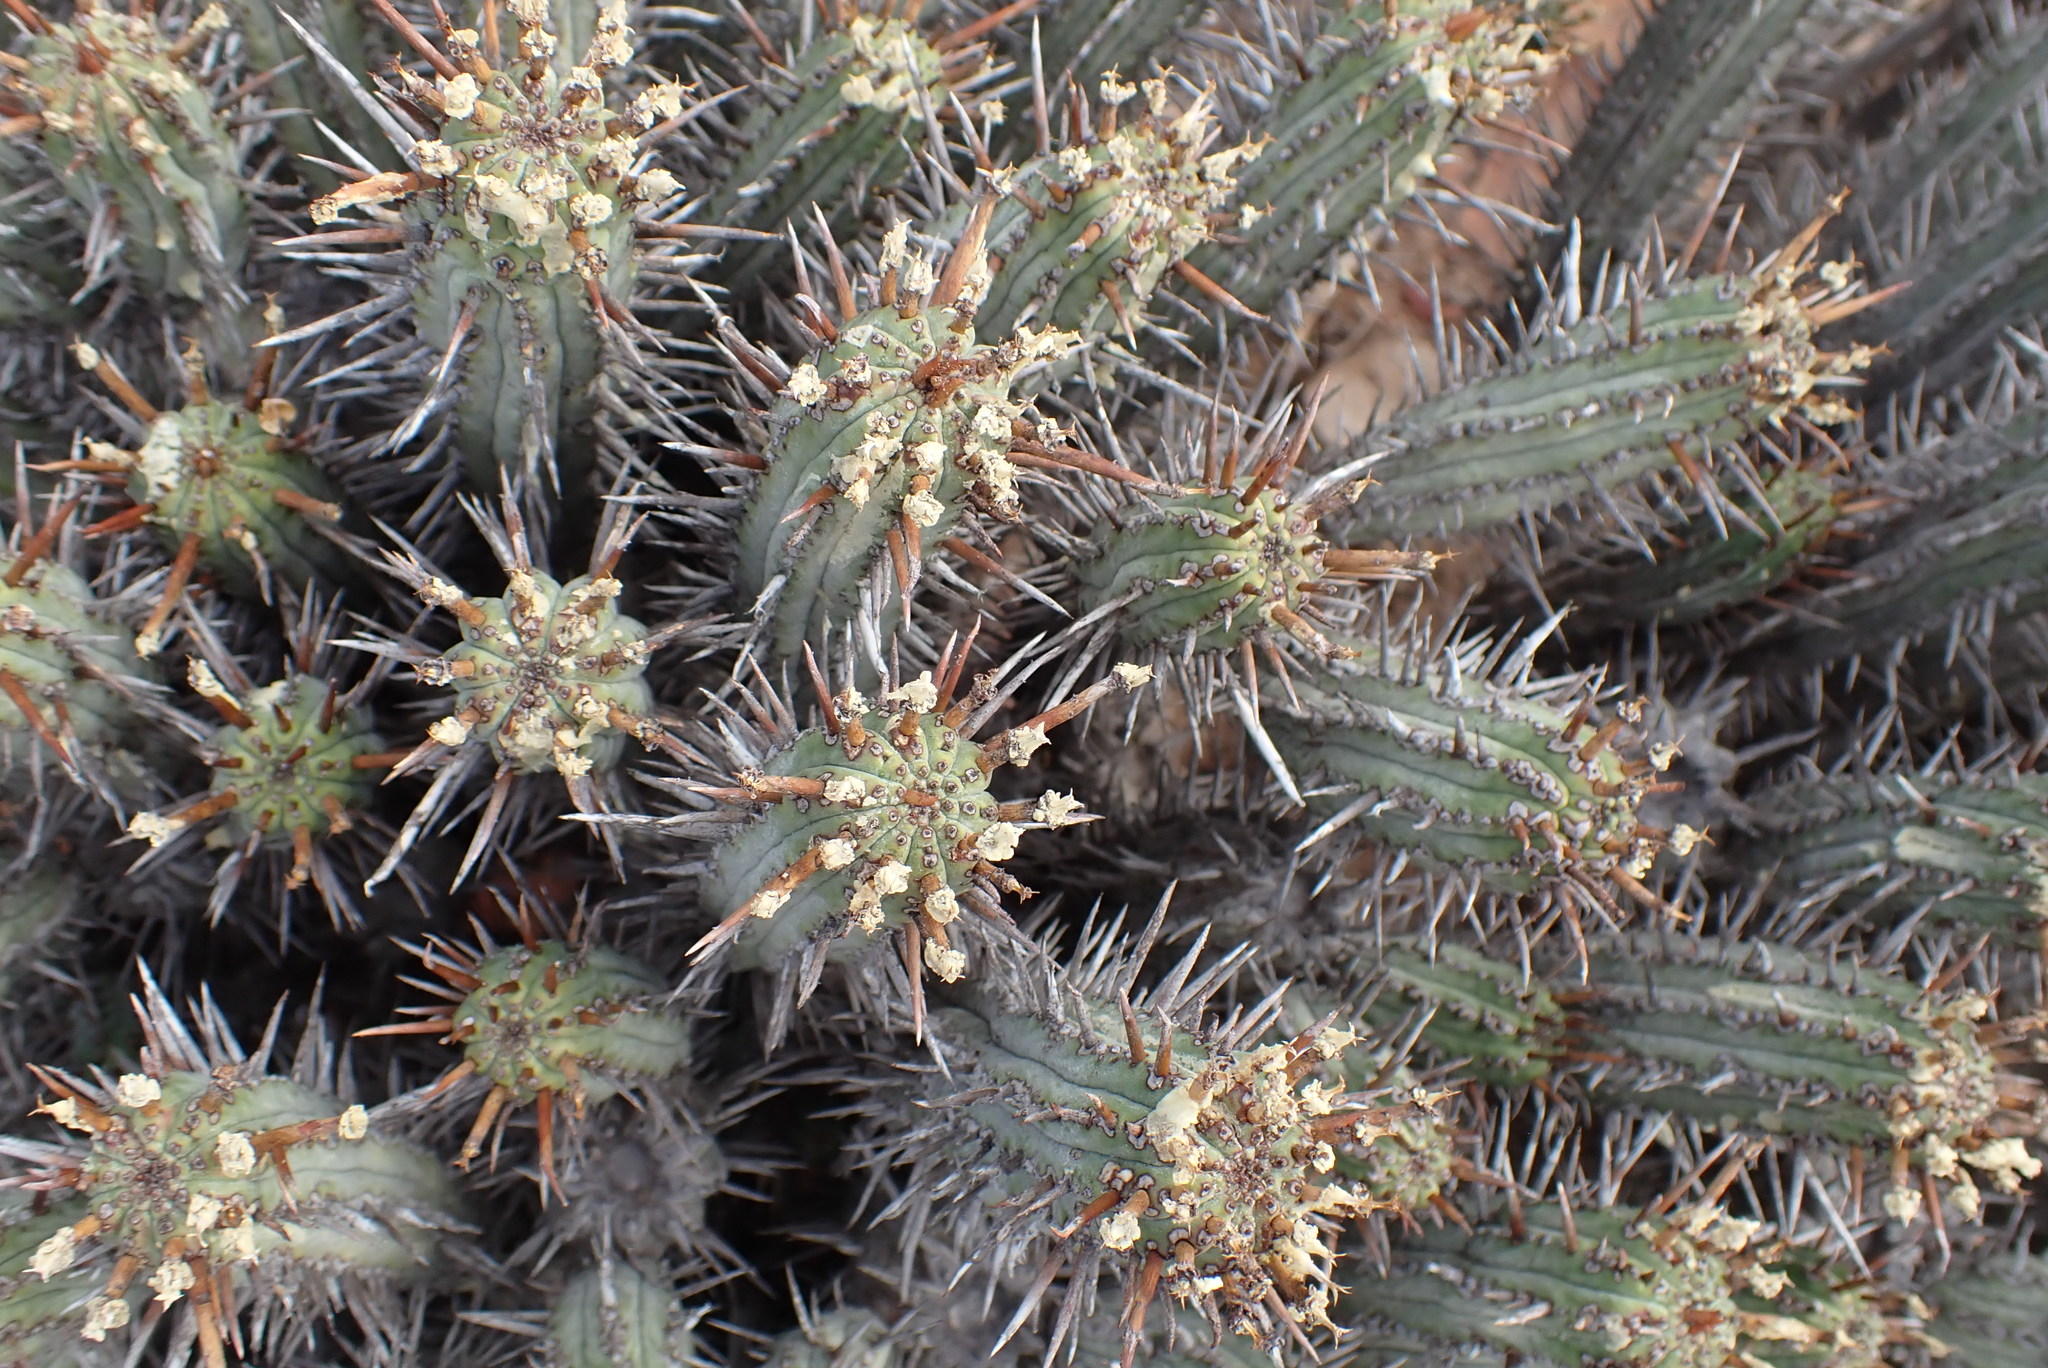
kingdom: Plantae
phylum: Tracheophyta
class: Magnoliopsida
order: Malpighiales
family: Euphorbiaceae
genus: Euphorbia
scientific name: Euphorbia heptagona
